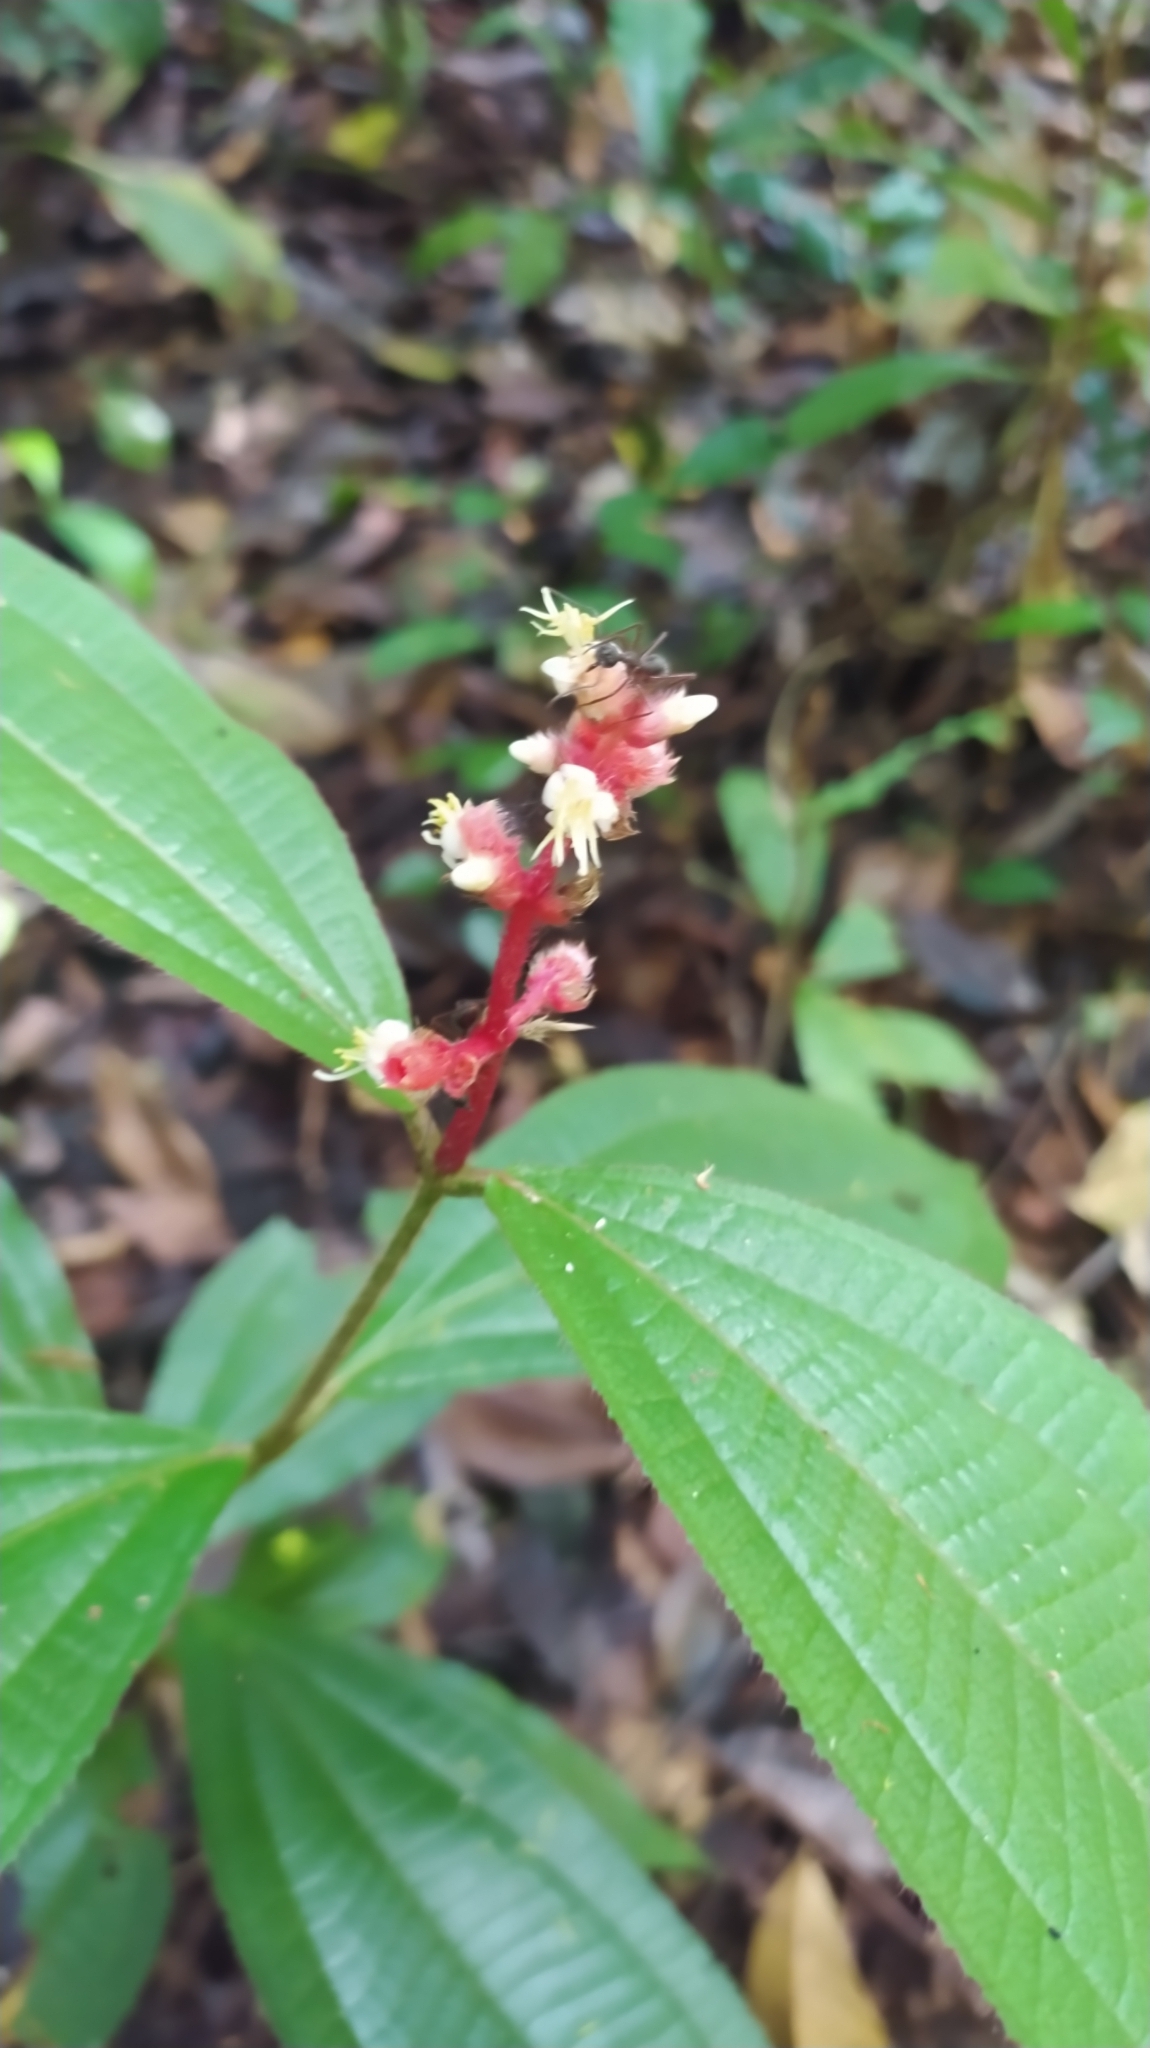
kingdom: Plantae
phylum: Tracheophyta
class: Magnoliopsida
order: Myrtales
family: Melastomataceae
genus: Miconia
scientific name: Miconia lappacea
